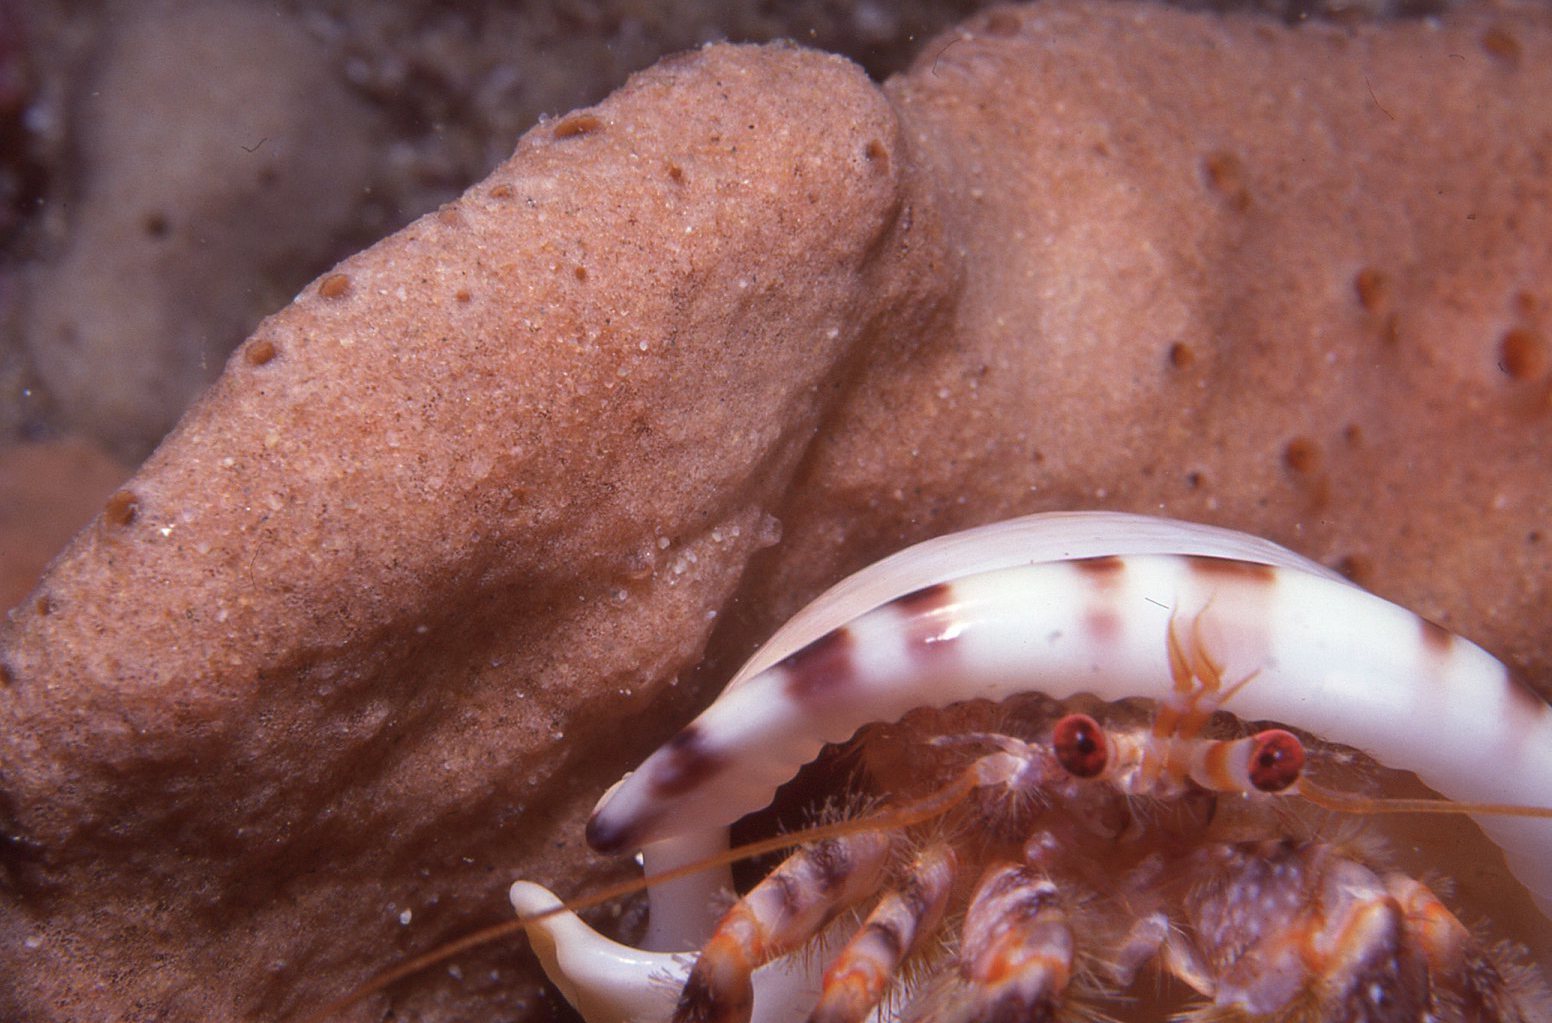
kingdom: Animalia
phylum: Arthropoda
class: Malacostraca
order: Decapoda
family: Paguridae
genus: Pagurus
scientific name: Pagurus sinuatus
